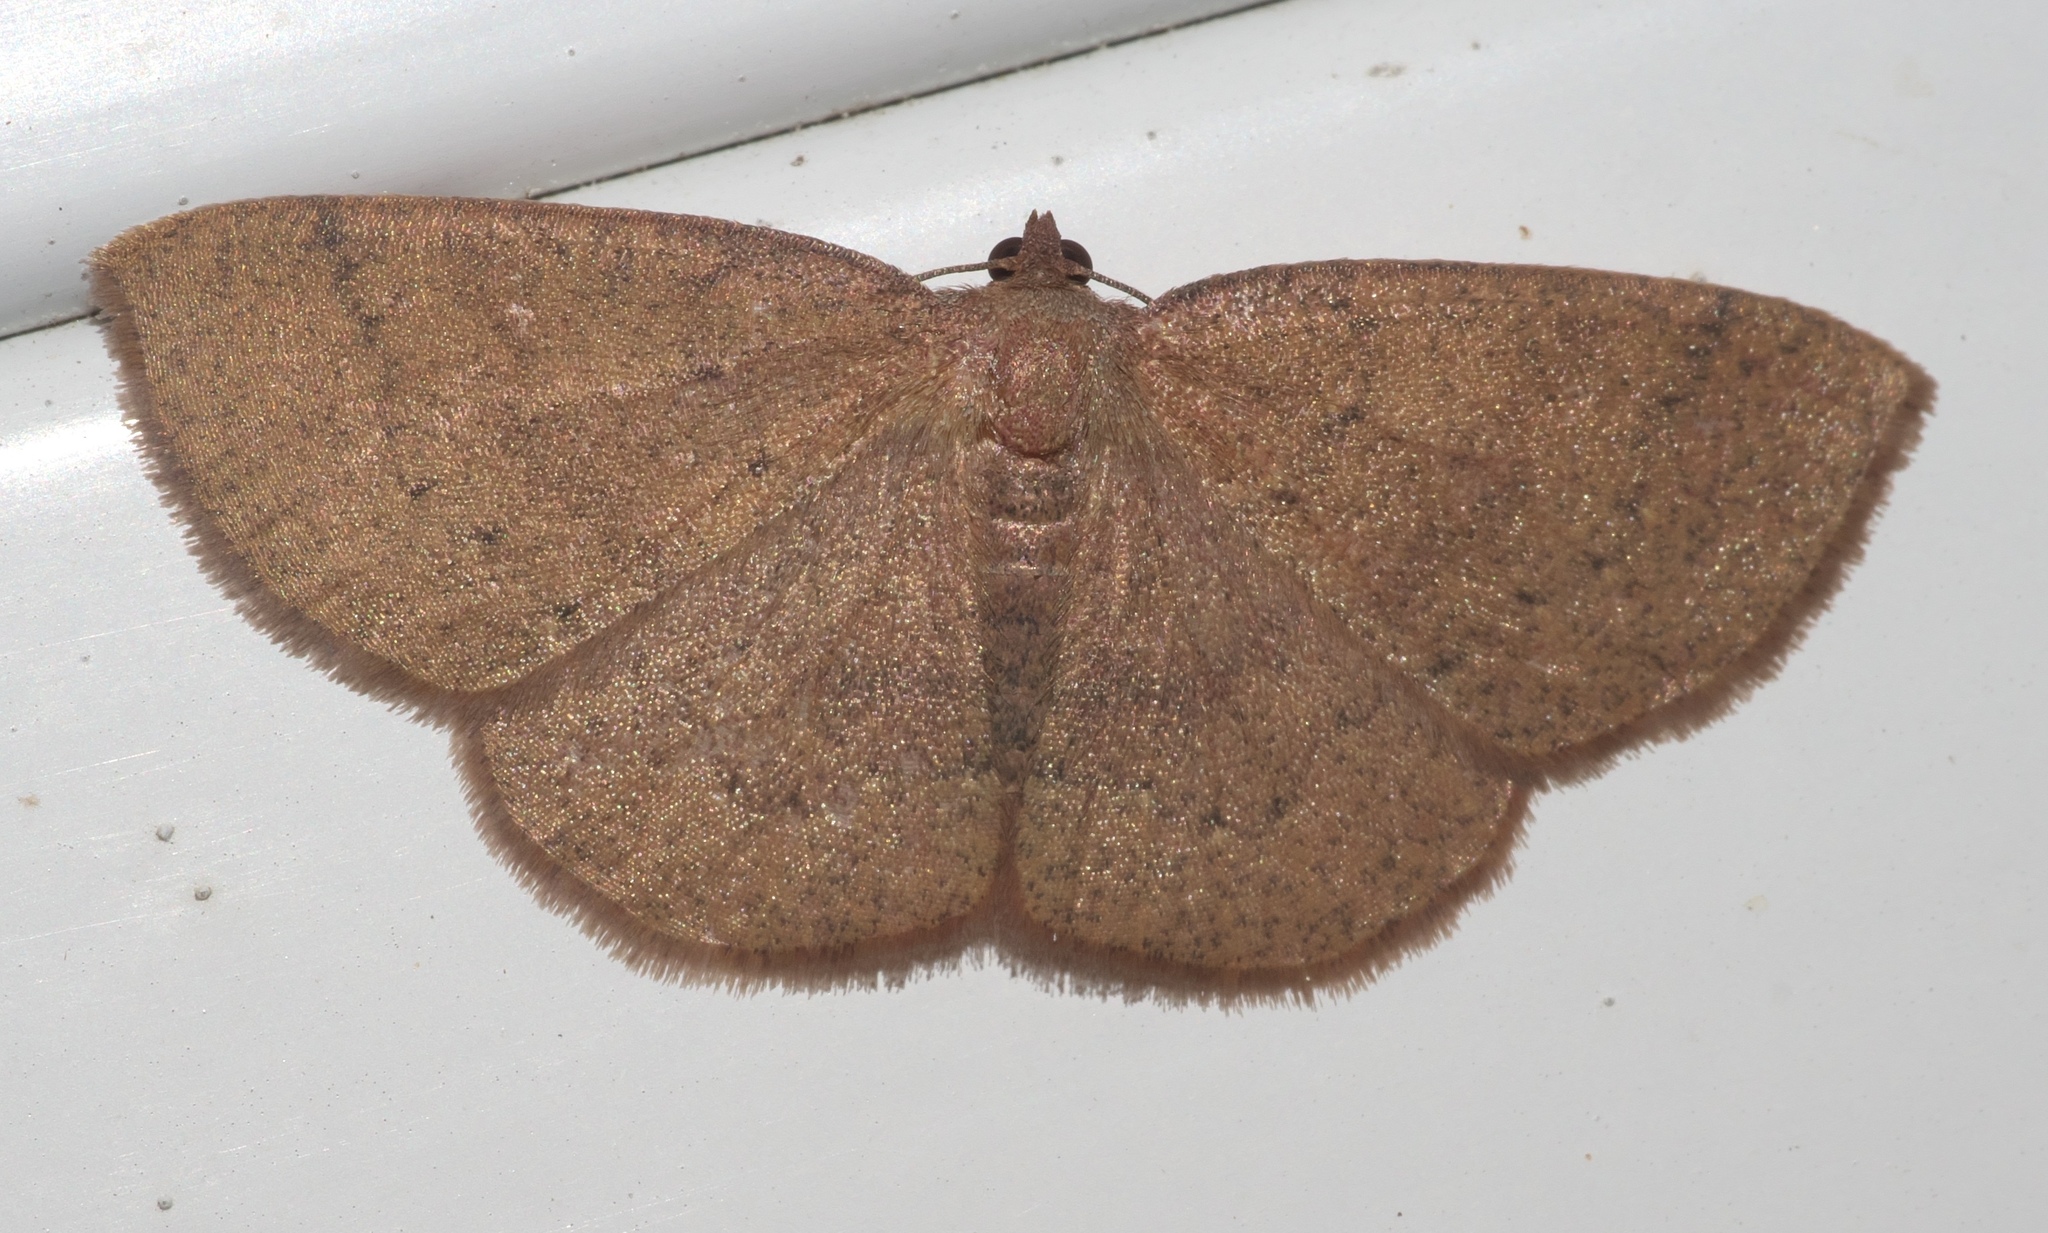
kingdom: Animalia
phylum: Arthropoda
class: Insecta
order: Lepidoptera
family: Geometridae
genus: Ilexia
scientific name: Ilexia intractata
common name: Black-dotted ruddy moth
